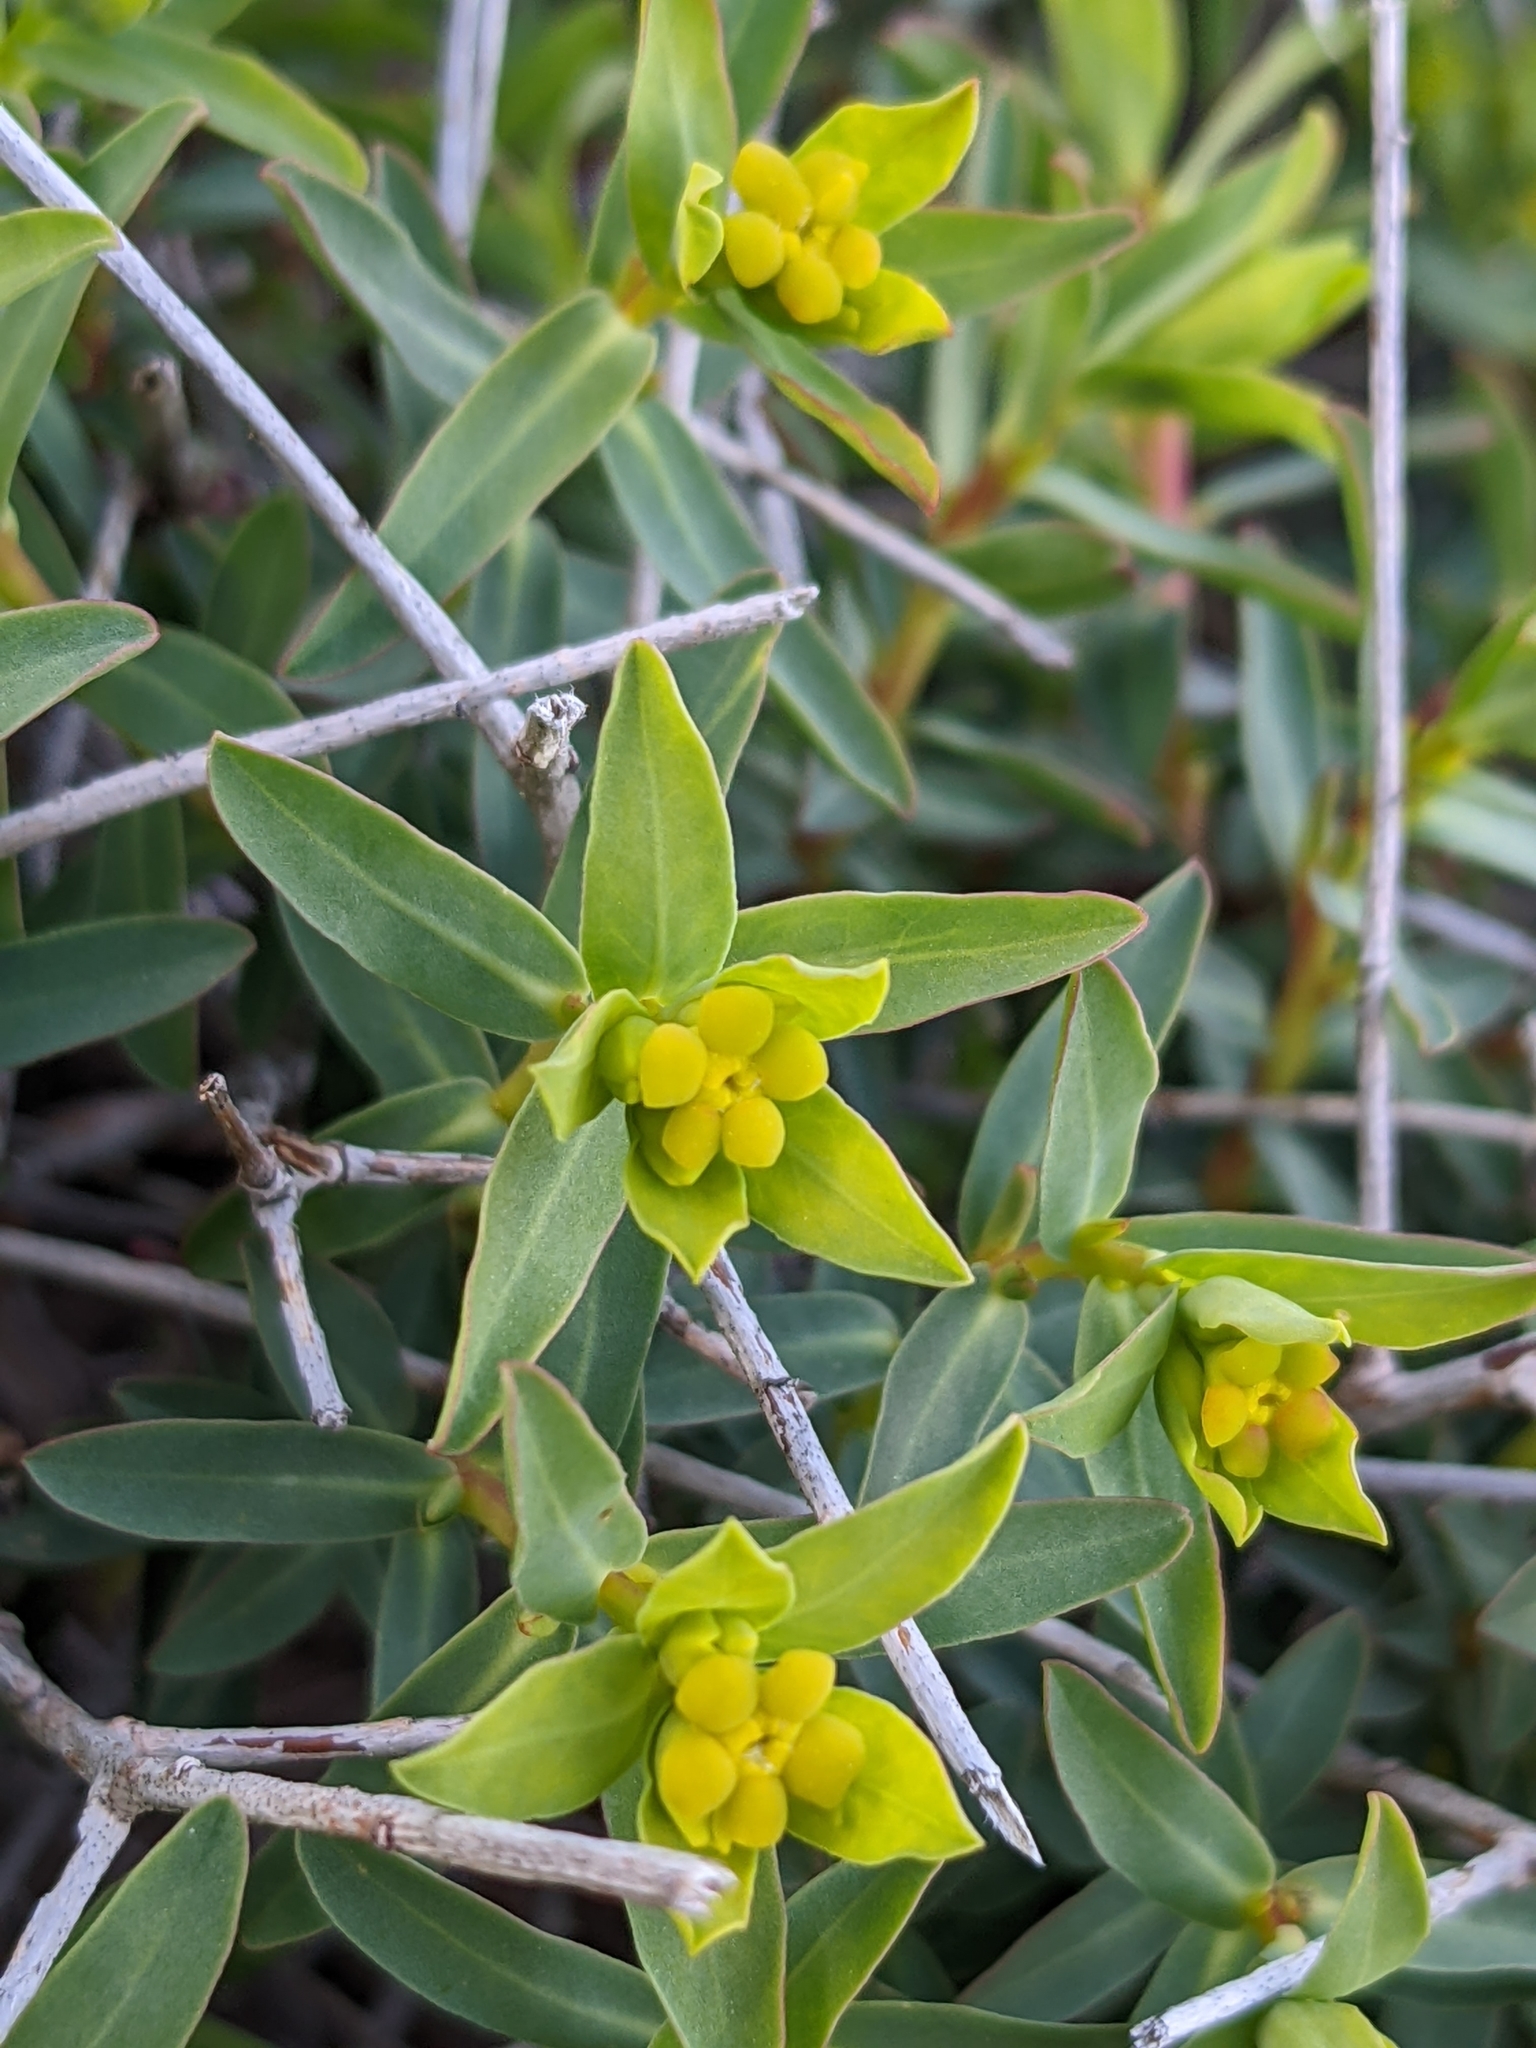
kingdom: Plantae
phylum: Tracheophyta
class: Magnoliopsida
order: Malpighiales
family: Euphorbiaceae
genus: Euphorbia
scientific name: Euphorbia spinosa
